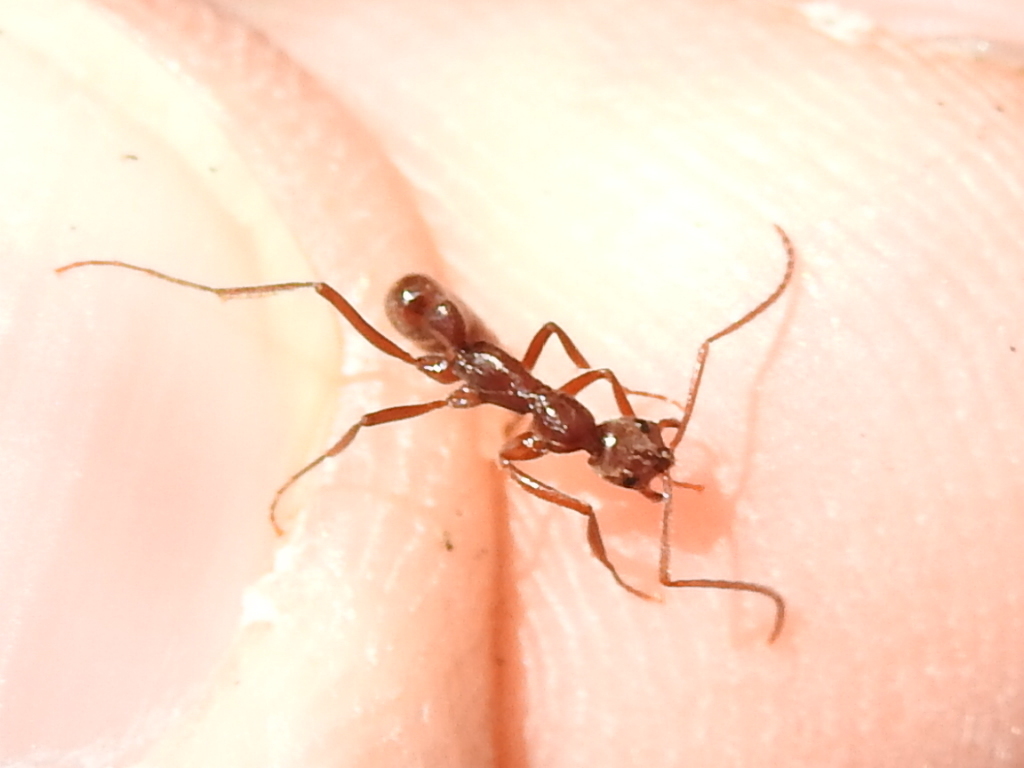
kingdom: Animalia
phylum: Arthropoda
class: Insecta
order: Hymenoptera
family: Formicidae
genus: Leptogenys
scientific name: Leptogenys elongata
